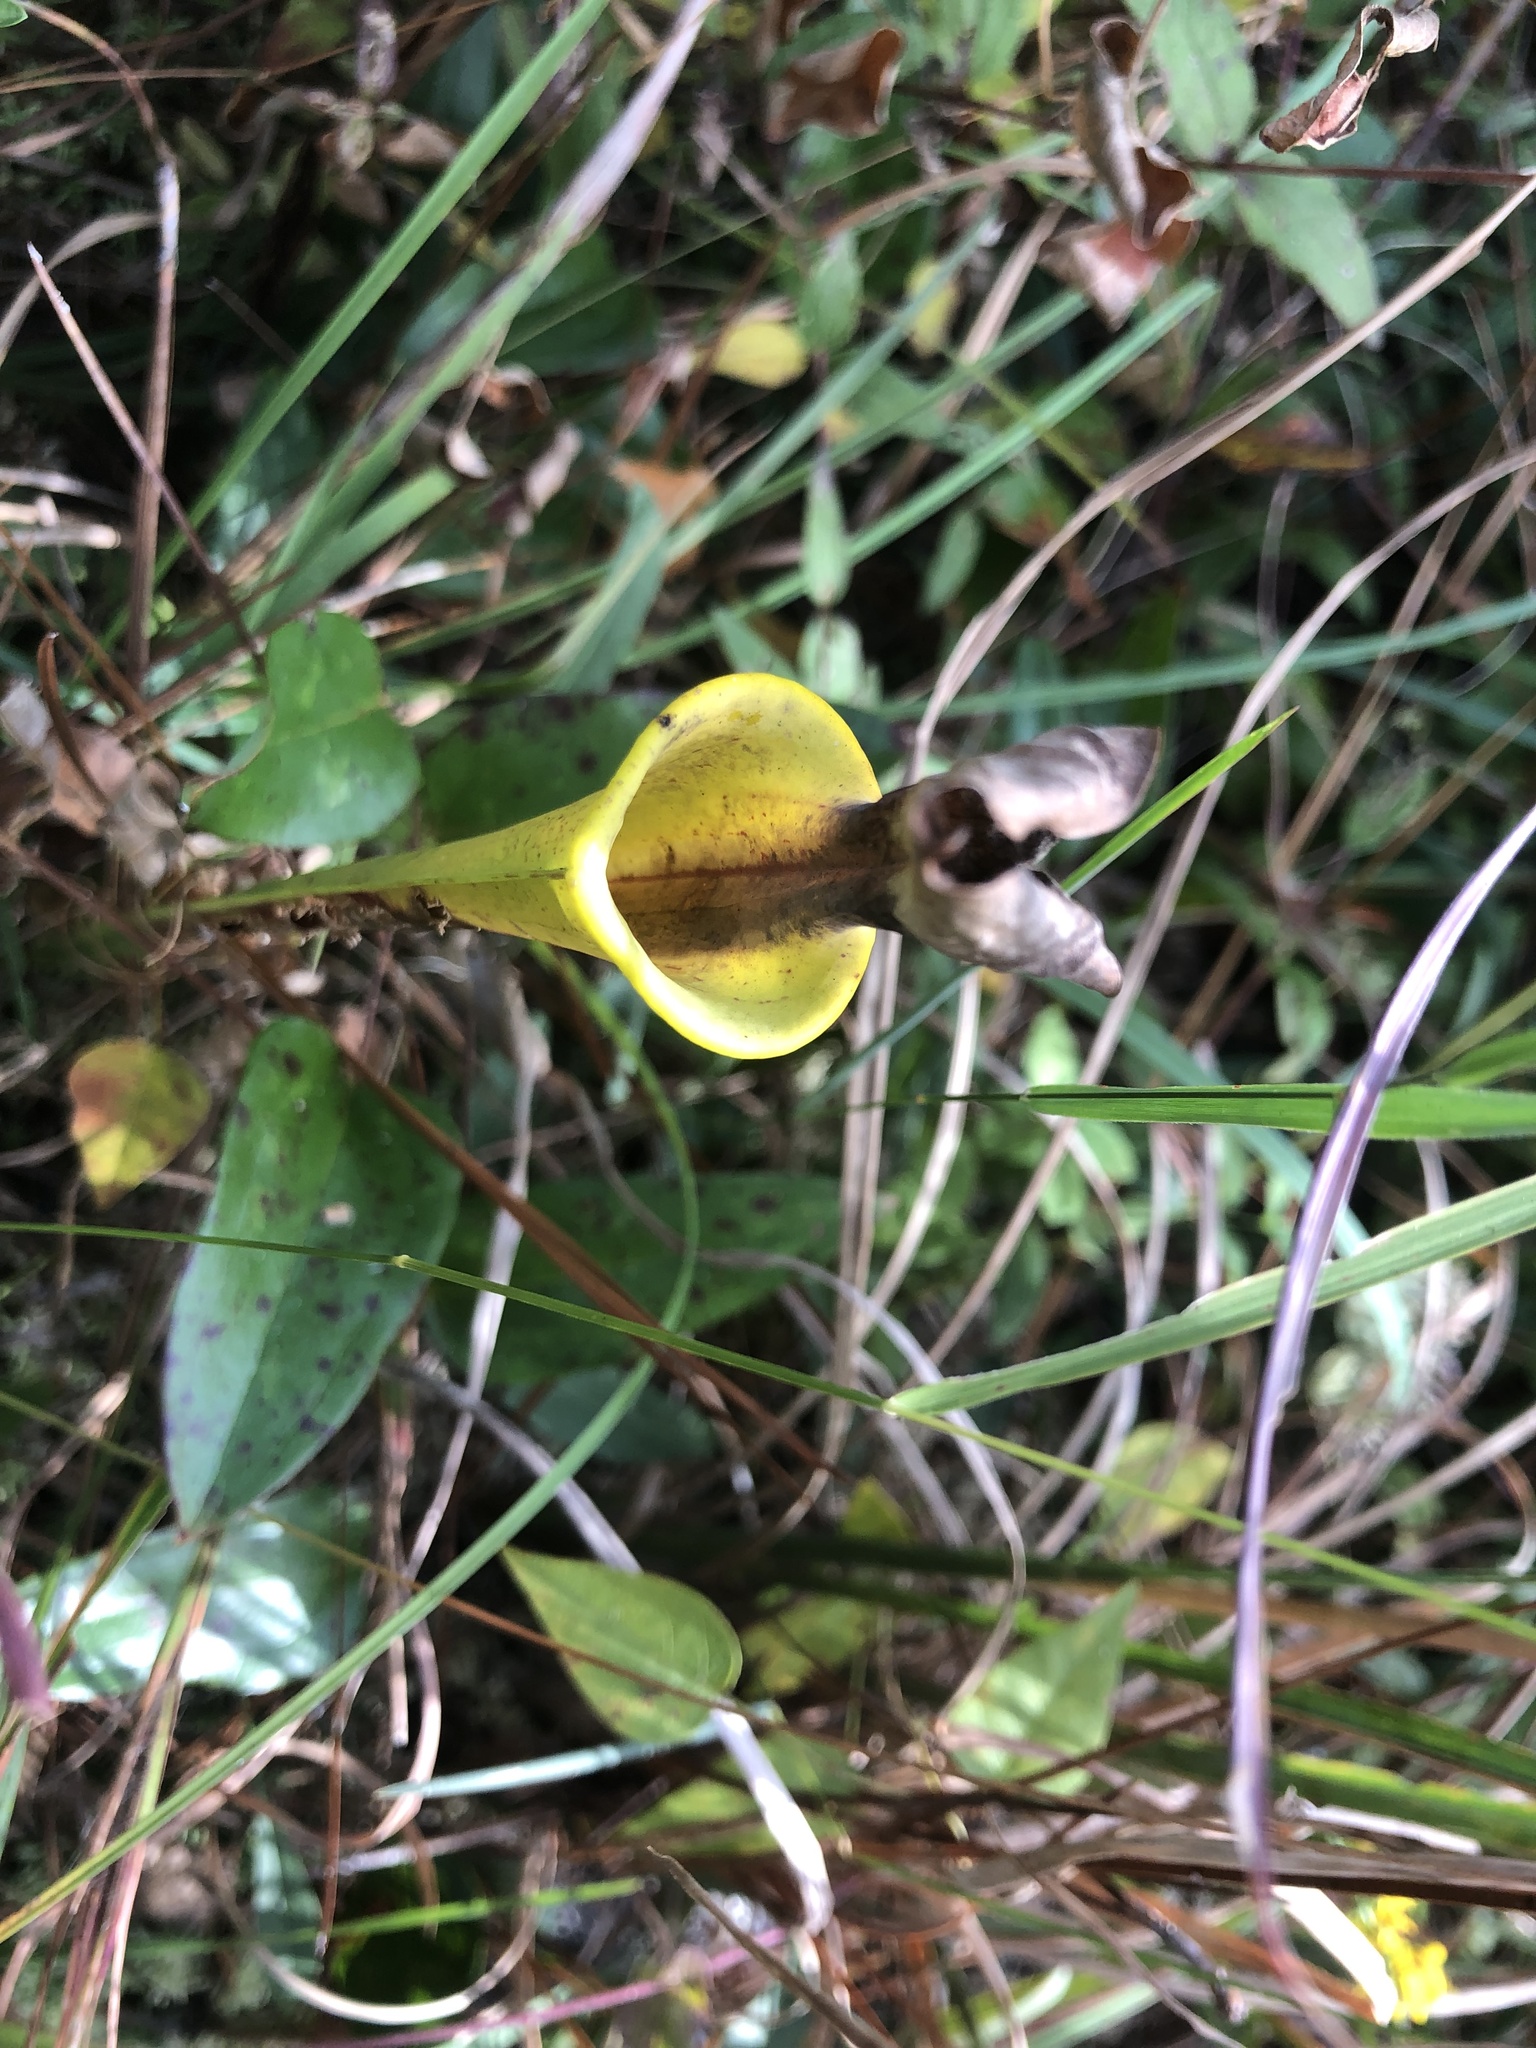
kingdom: Plantae
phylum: Tracheophyta
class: Magnoliopsida
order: Ericales
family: Sarraceniaceae
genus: Sarracenia
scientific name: Sarracenia flava
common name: Trumpets
